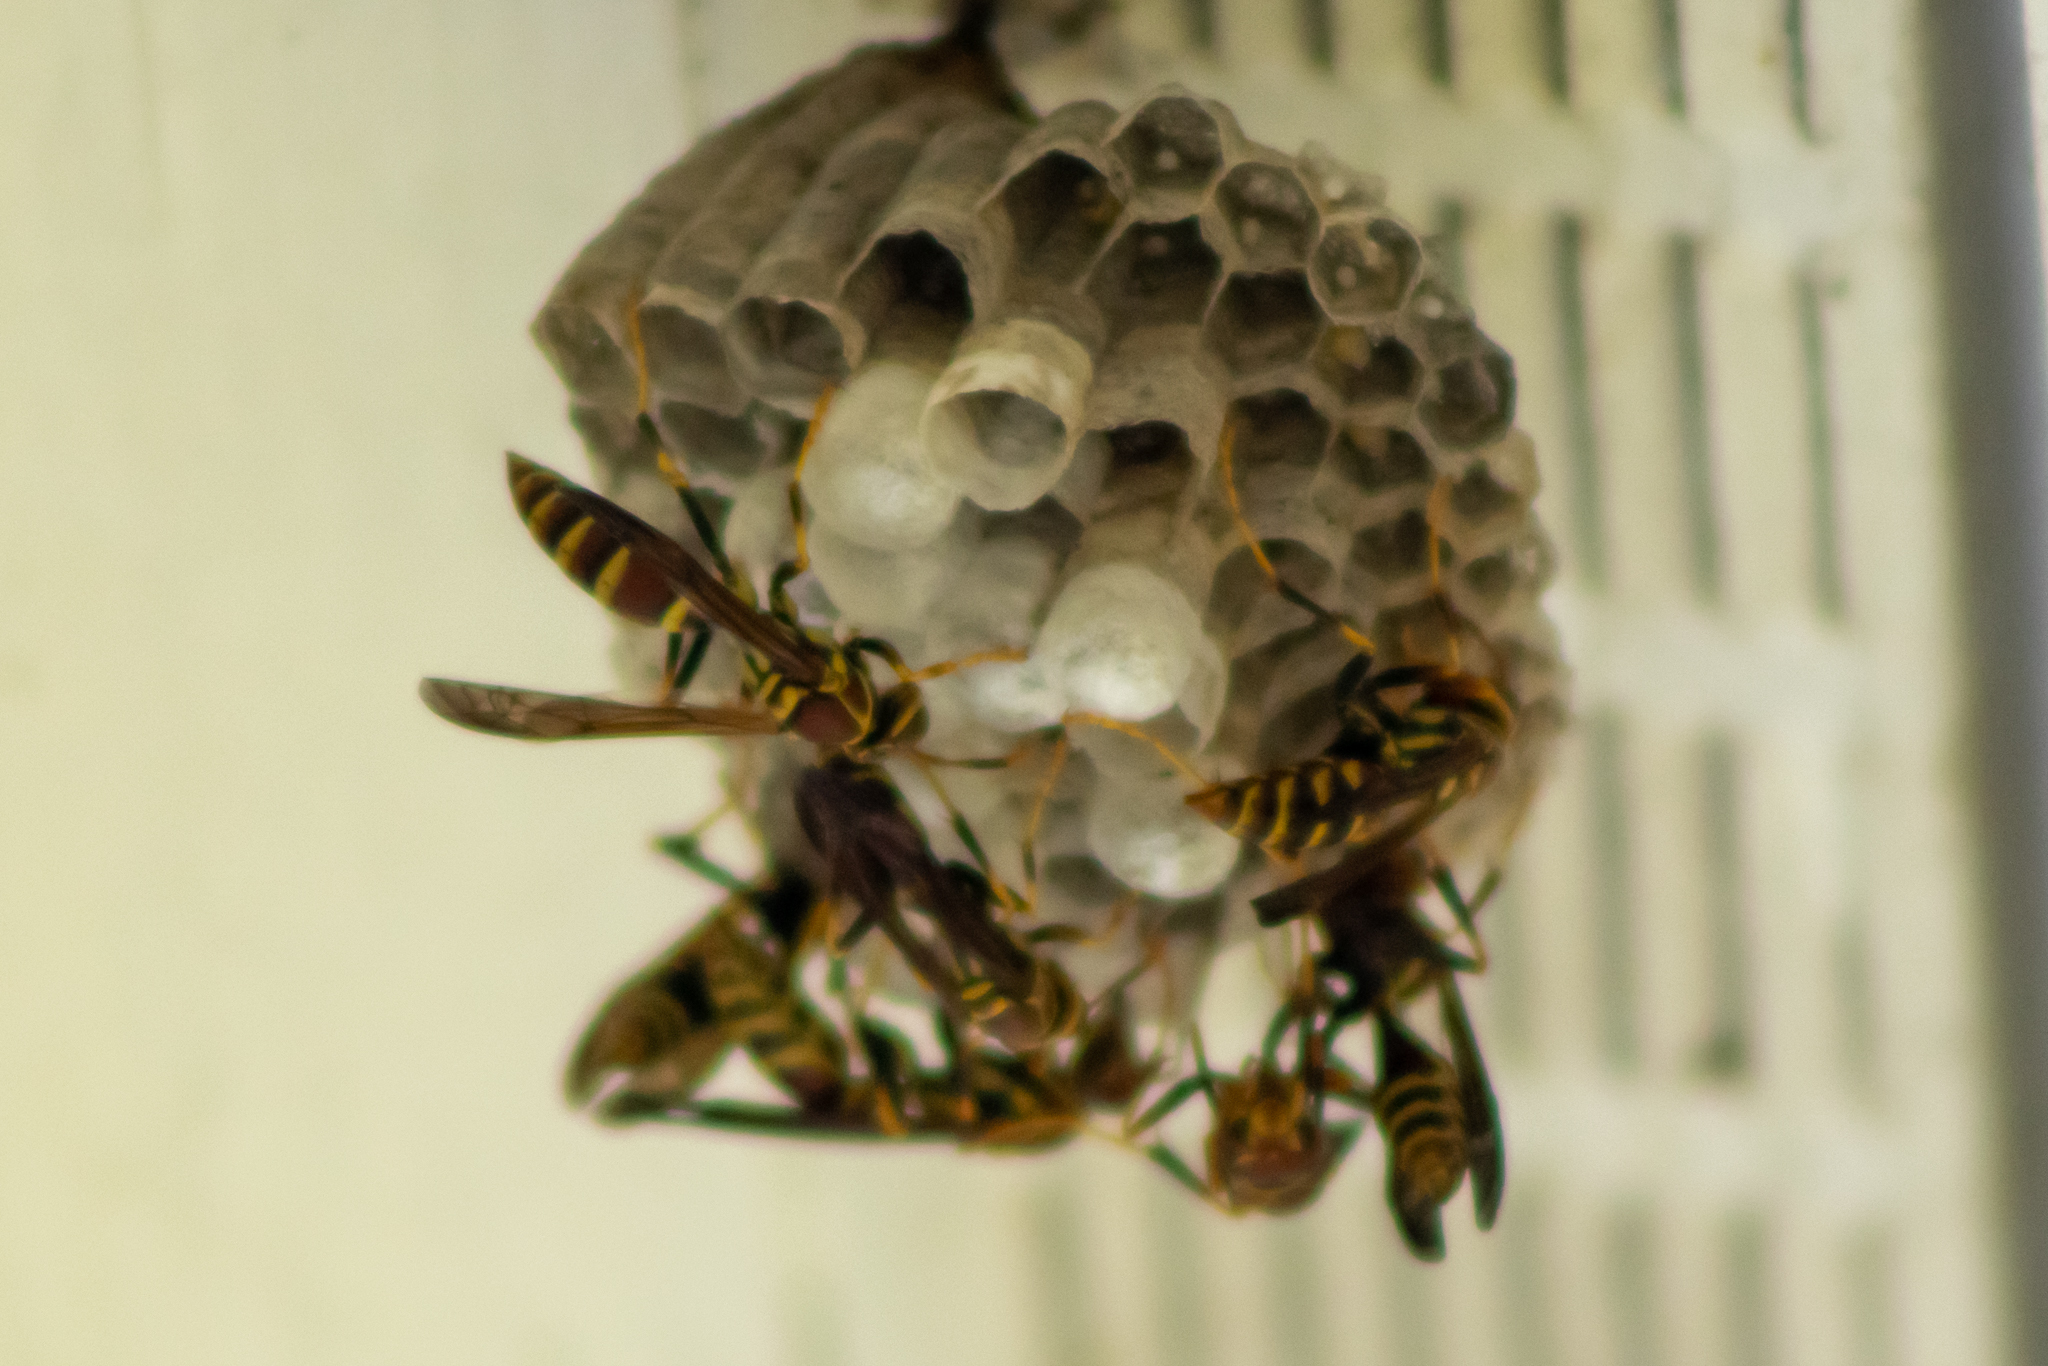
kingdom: Animalia
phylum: Arthropoda
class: Insecta
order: Hymenoptera
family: Eumenidae
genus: Polistes
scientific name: Polistes exclamans
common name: Paper wasp
